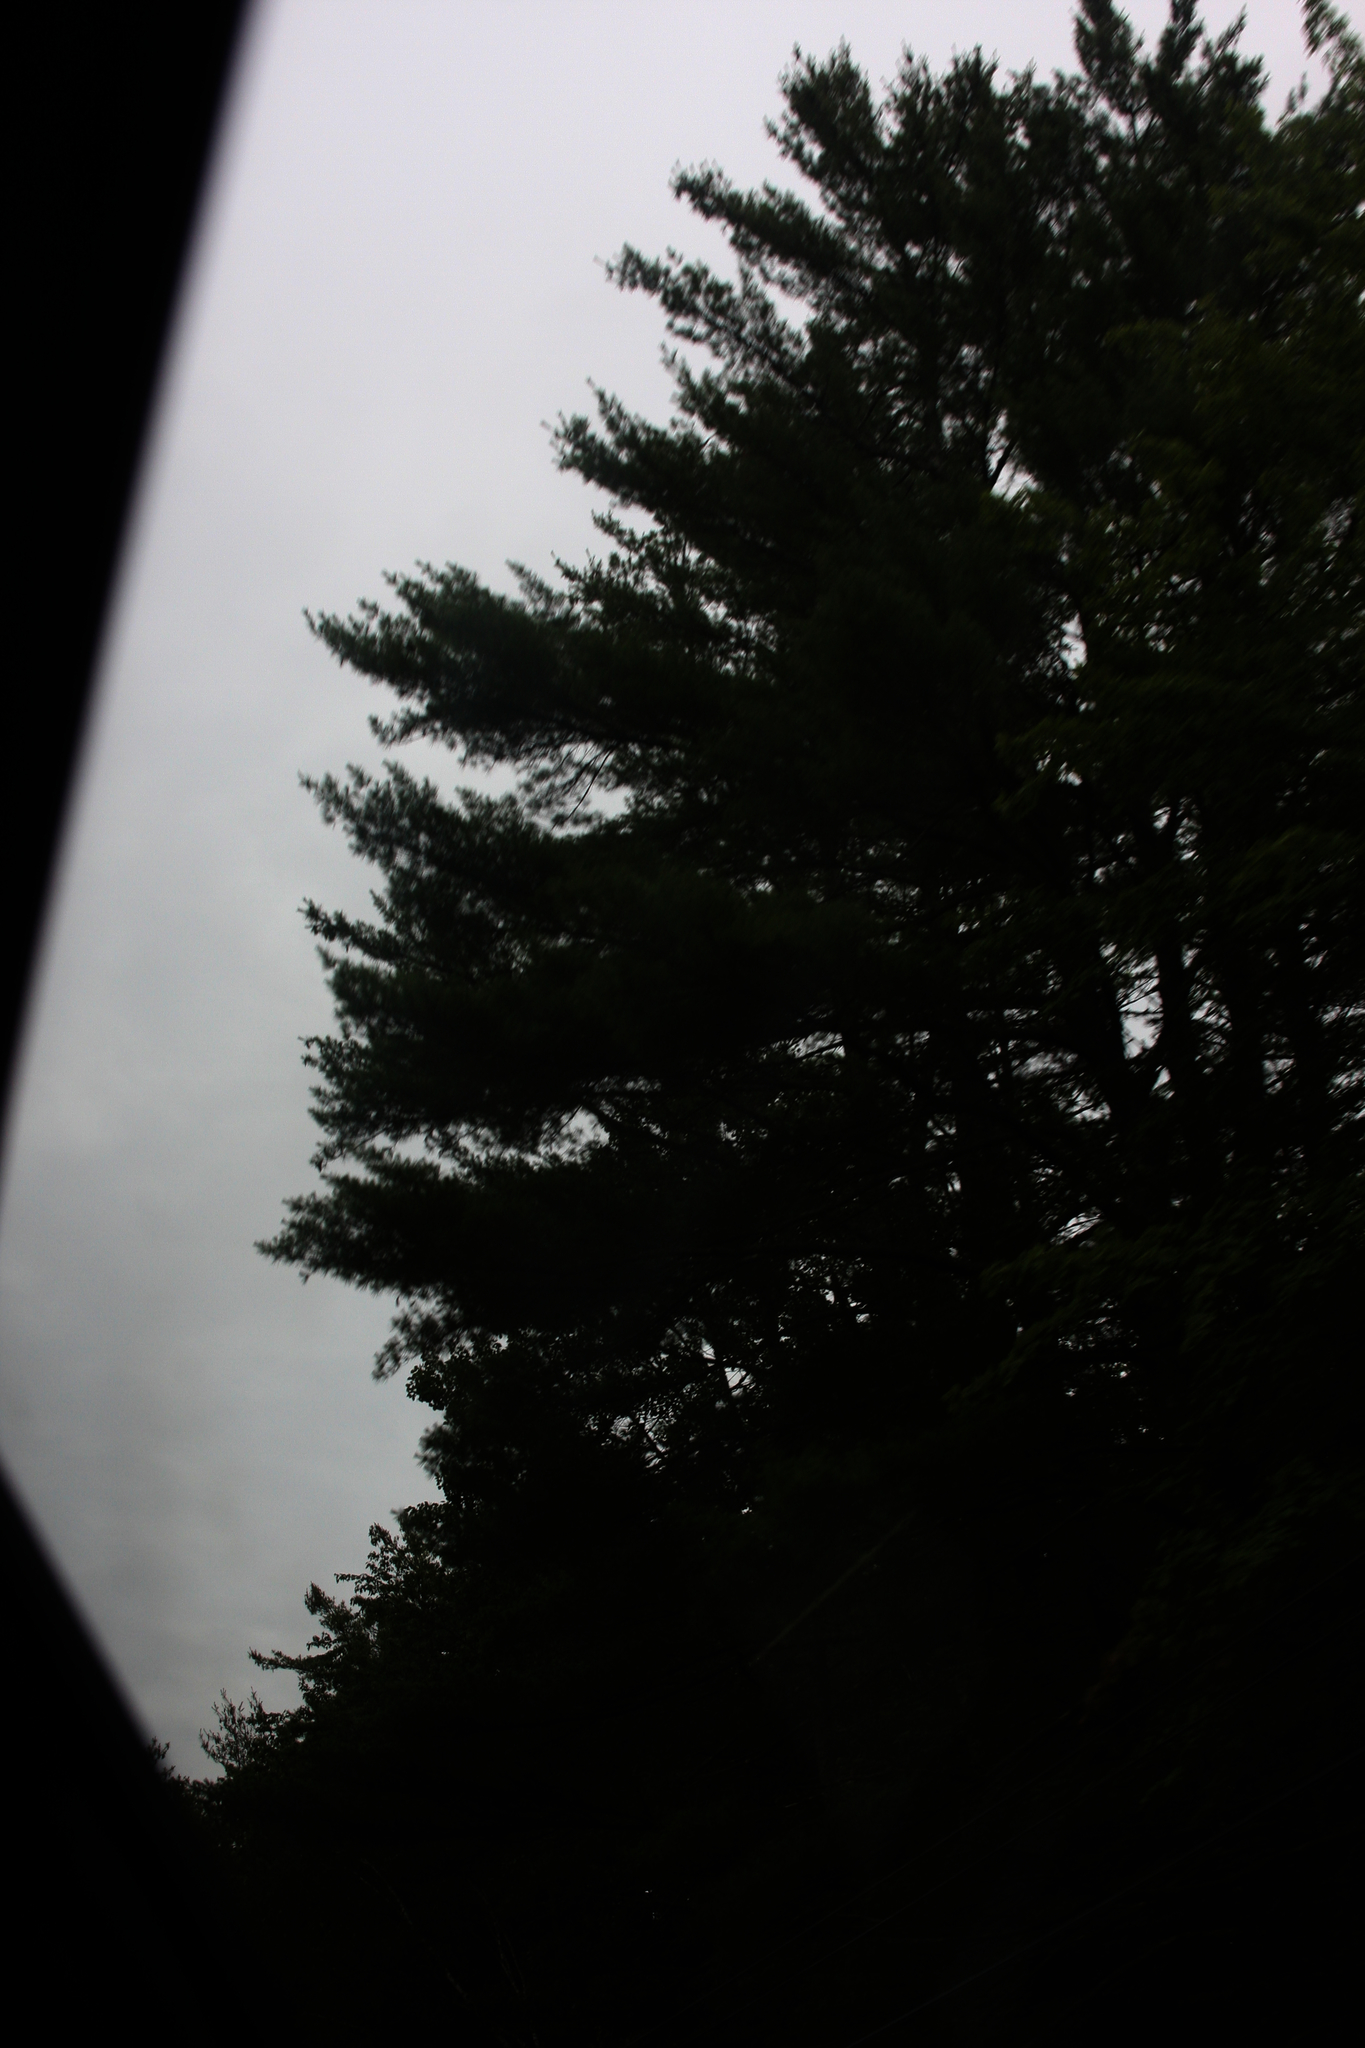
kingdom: Plantae
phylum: Tracheophyta
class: Pinopsida
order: Pinales
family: Pinaceae
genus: Pinus
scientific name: Pinus strobus
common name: Weymouth pine
